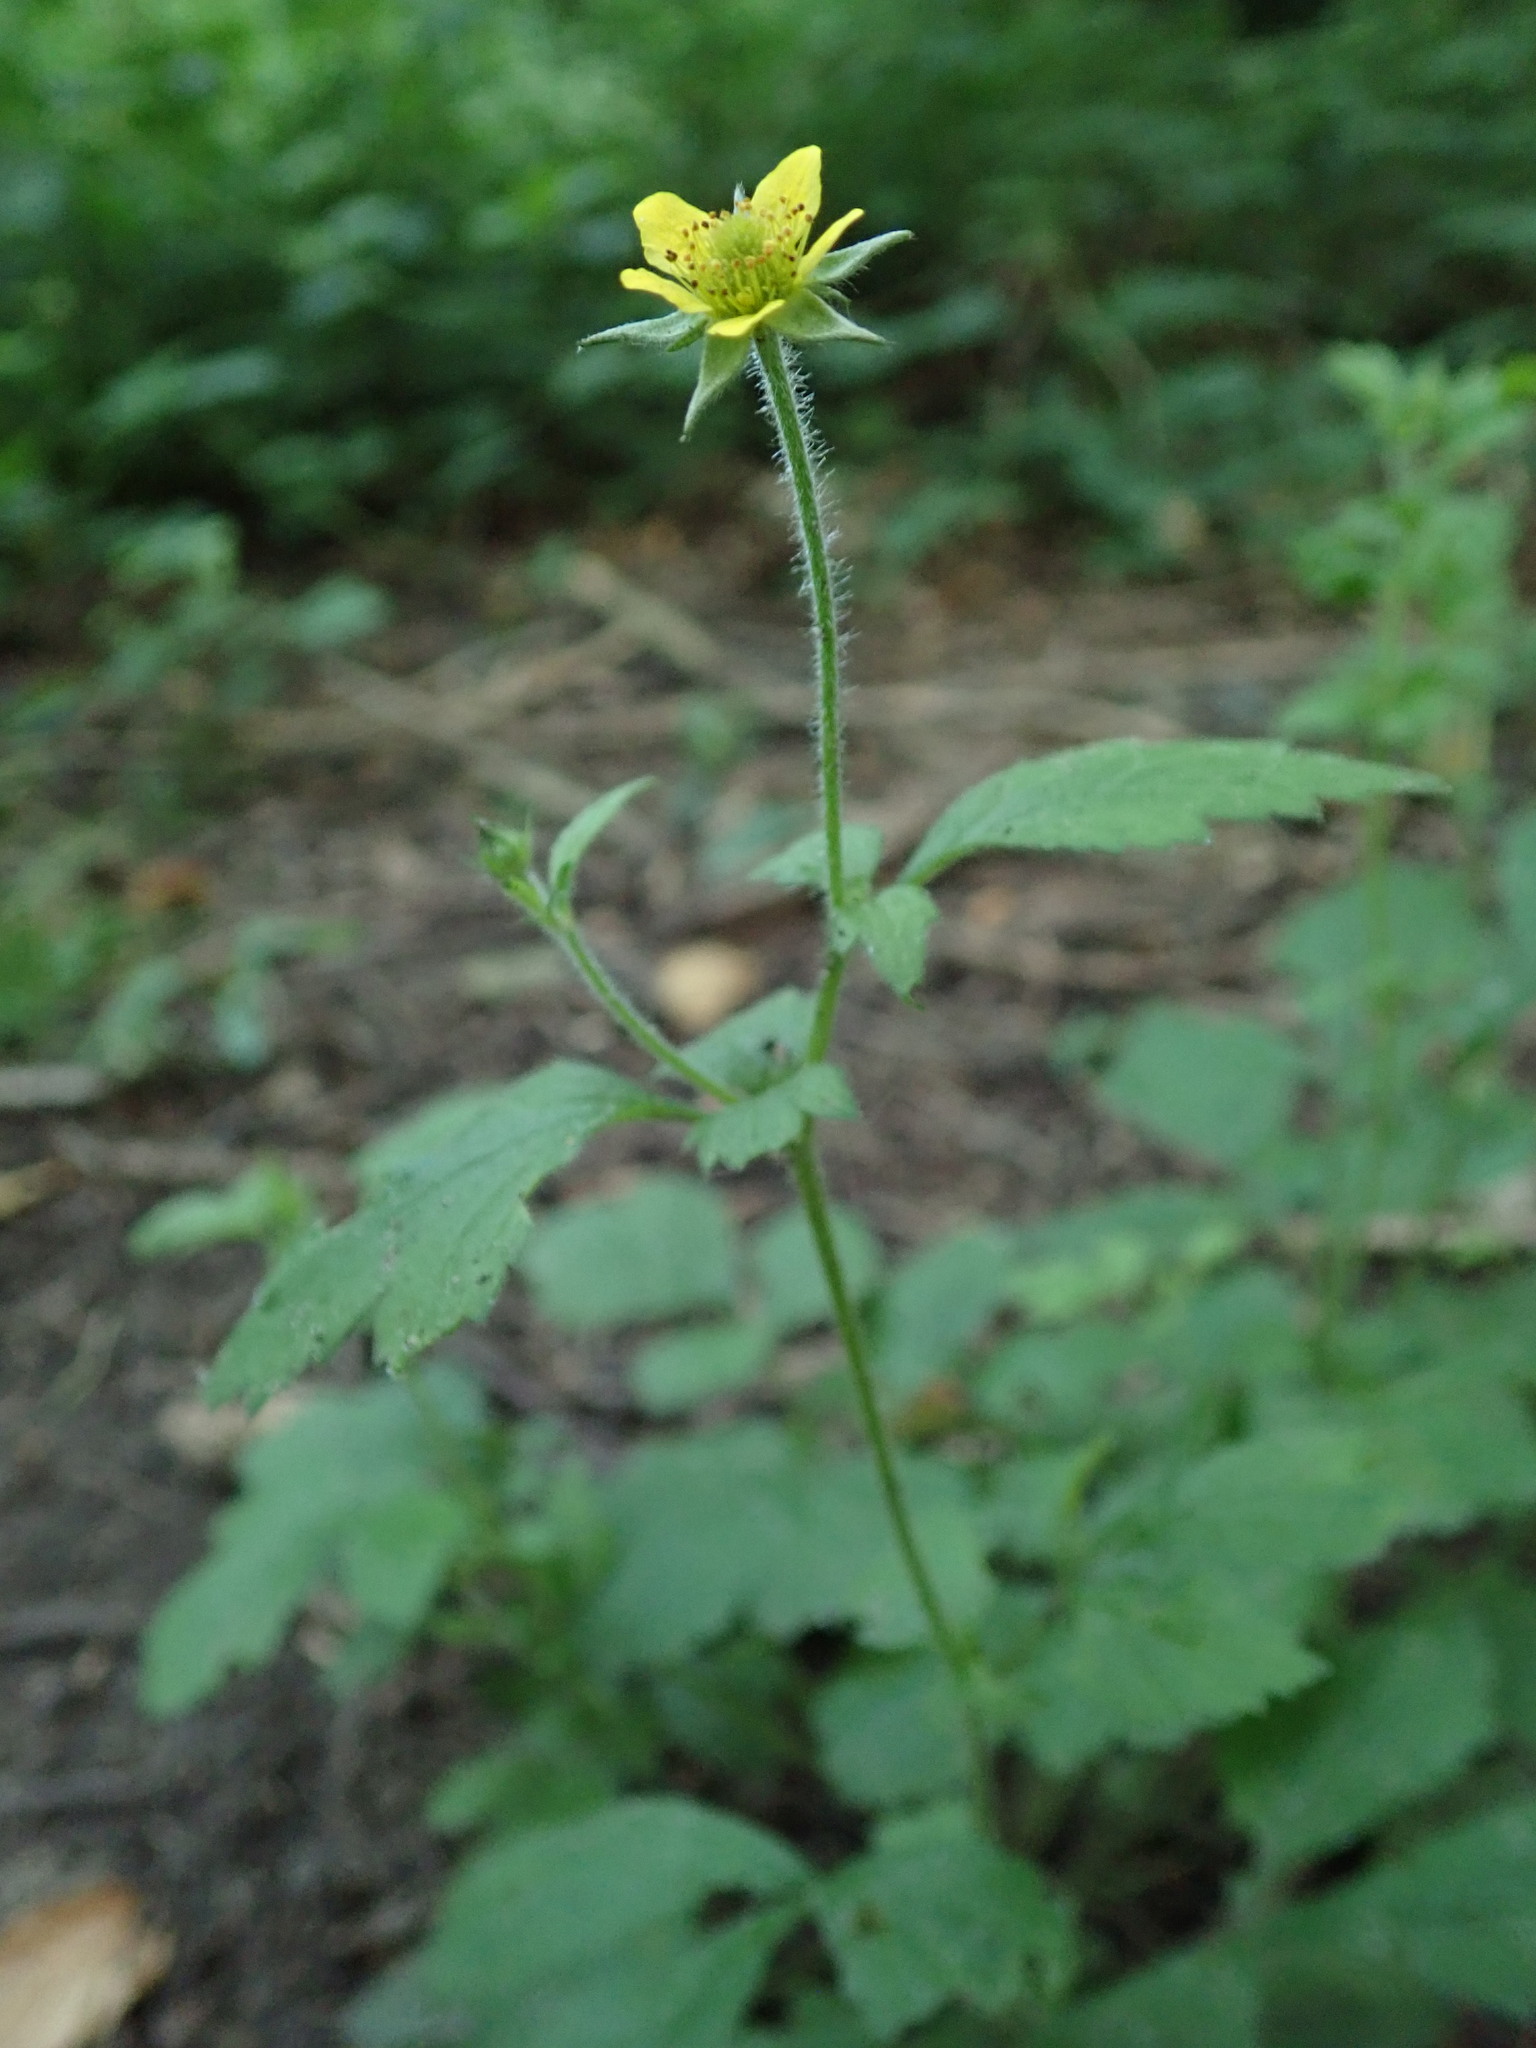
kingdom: Plantae
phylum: Tracheophyta
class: Magnoliopsida
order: Rosales
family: Rosaceae
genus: Geum
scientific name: Geum urbanum
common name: Wood avens
